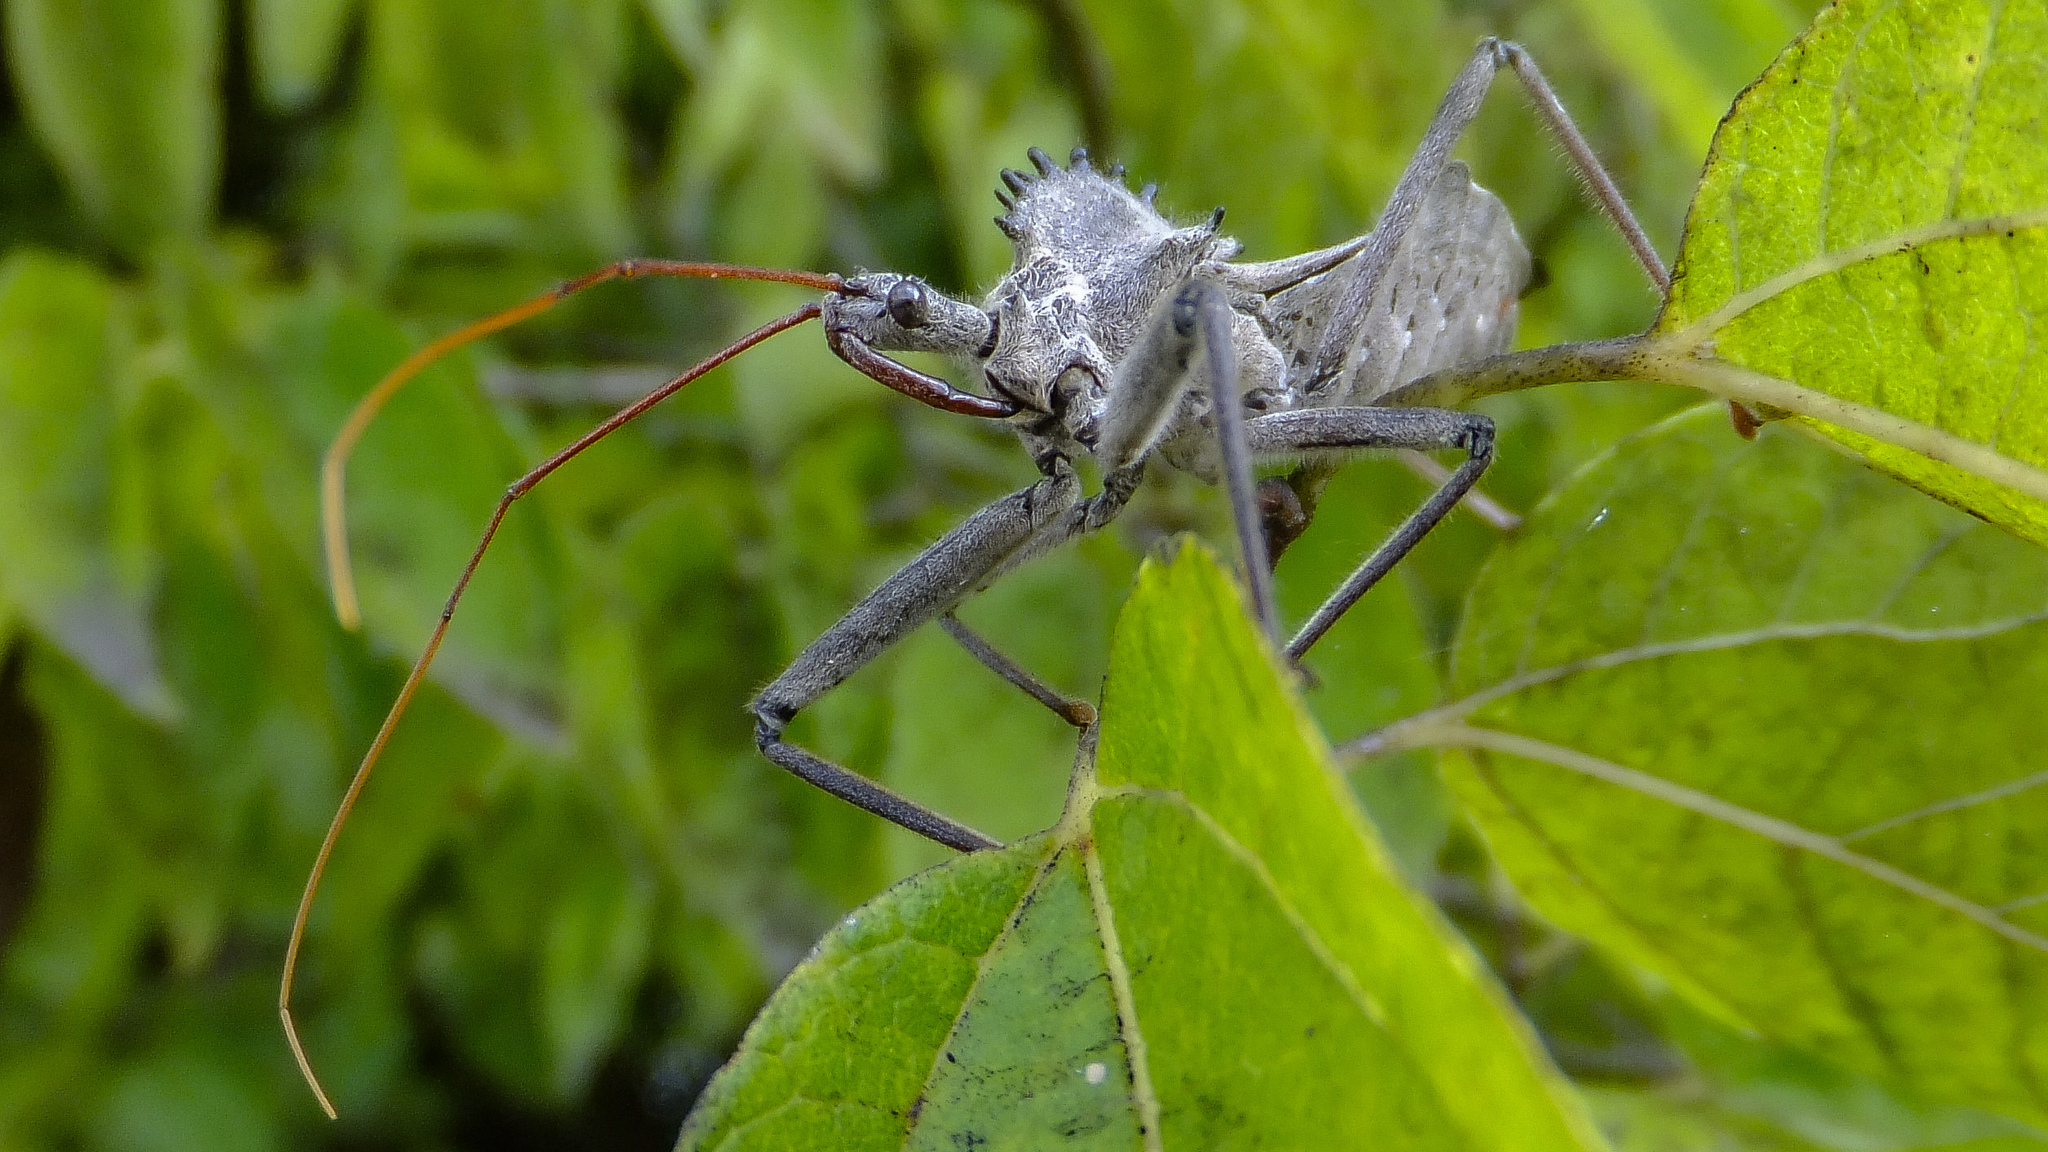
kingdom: Animalia
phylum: Arthropoda
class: Insecta
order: Hemiptera
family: Reduviidae
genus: Arilus
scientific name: Arilus cristatus
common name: North american wheel bug
